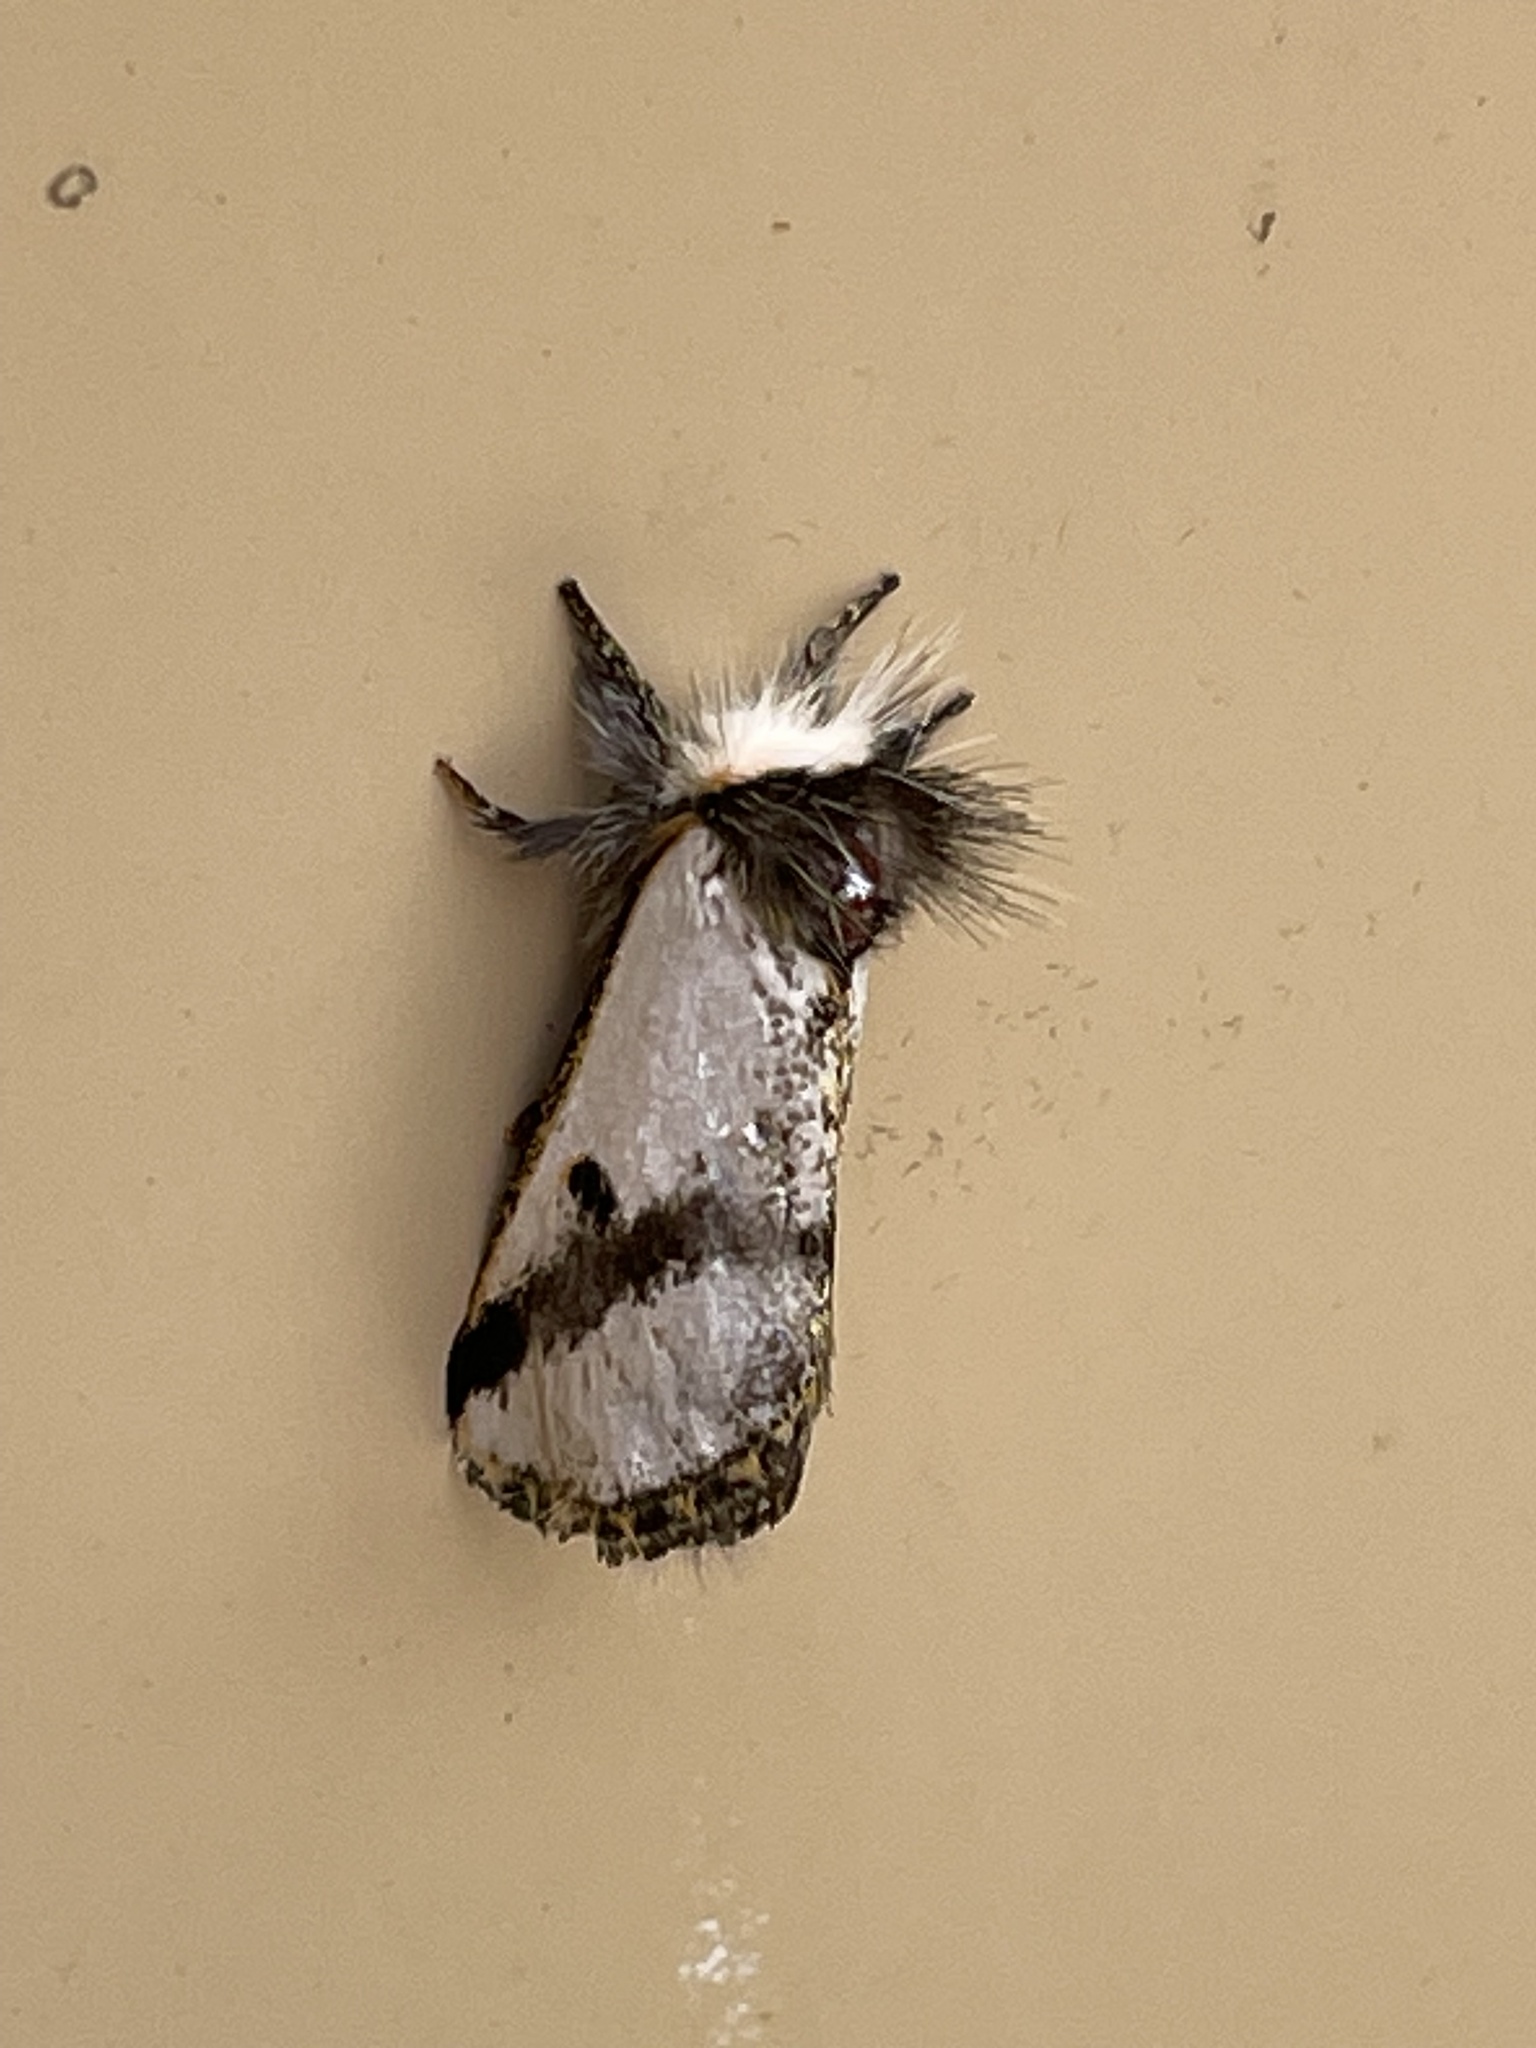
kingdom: Animalia
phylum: Arthropoda
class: Insecta
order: Lepidoptera
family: Notodontidae
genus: Epicoma
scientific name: Epicoma melanospila
